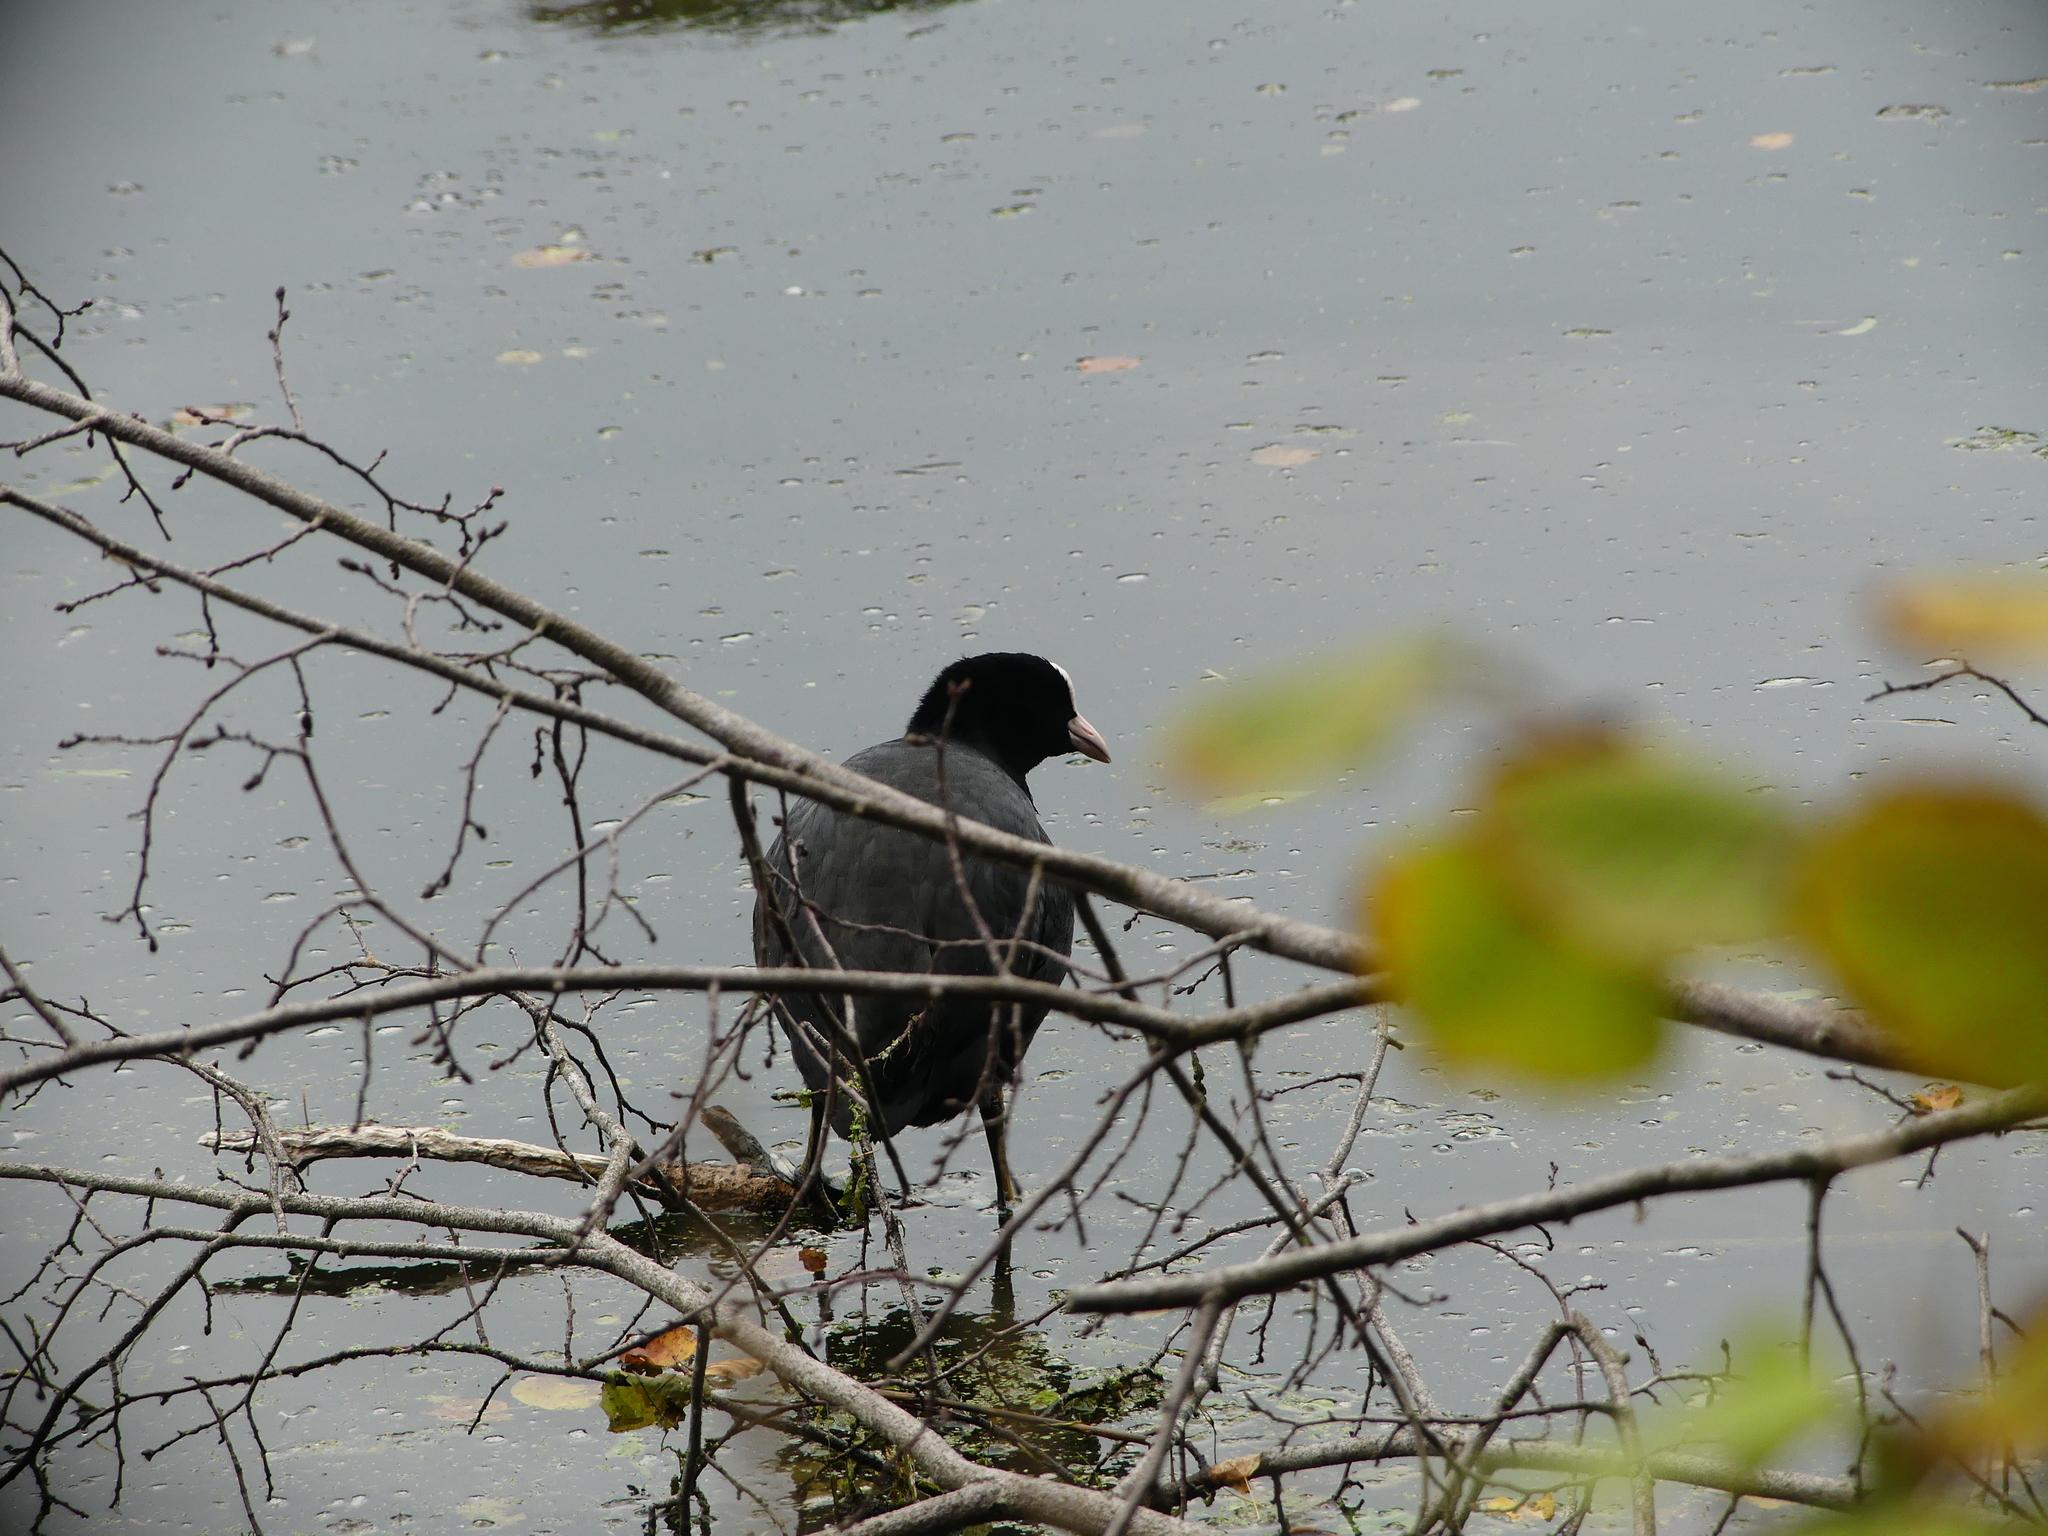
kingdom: Animalia
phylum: Chordata
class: Aves
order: Gruiformes
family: Rallidae
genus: Fulica
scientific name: Fulica atra
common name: Eurasian coot
